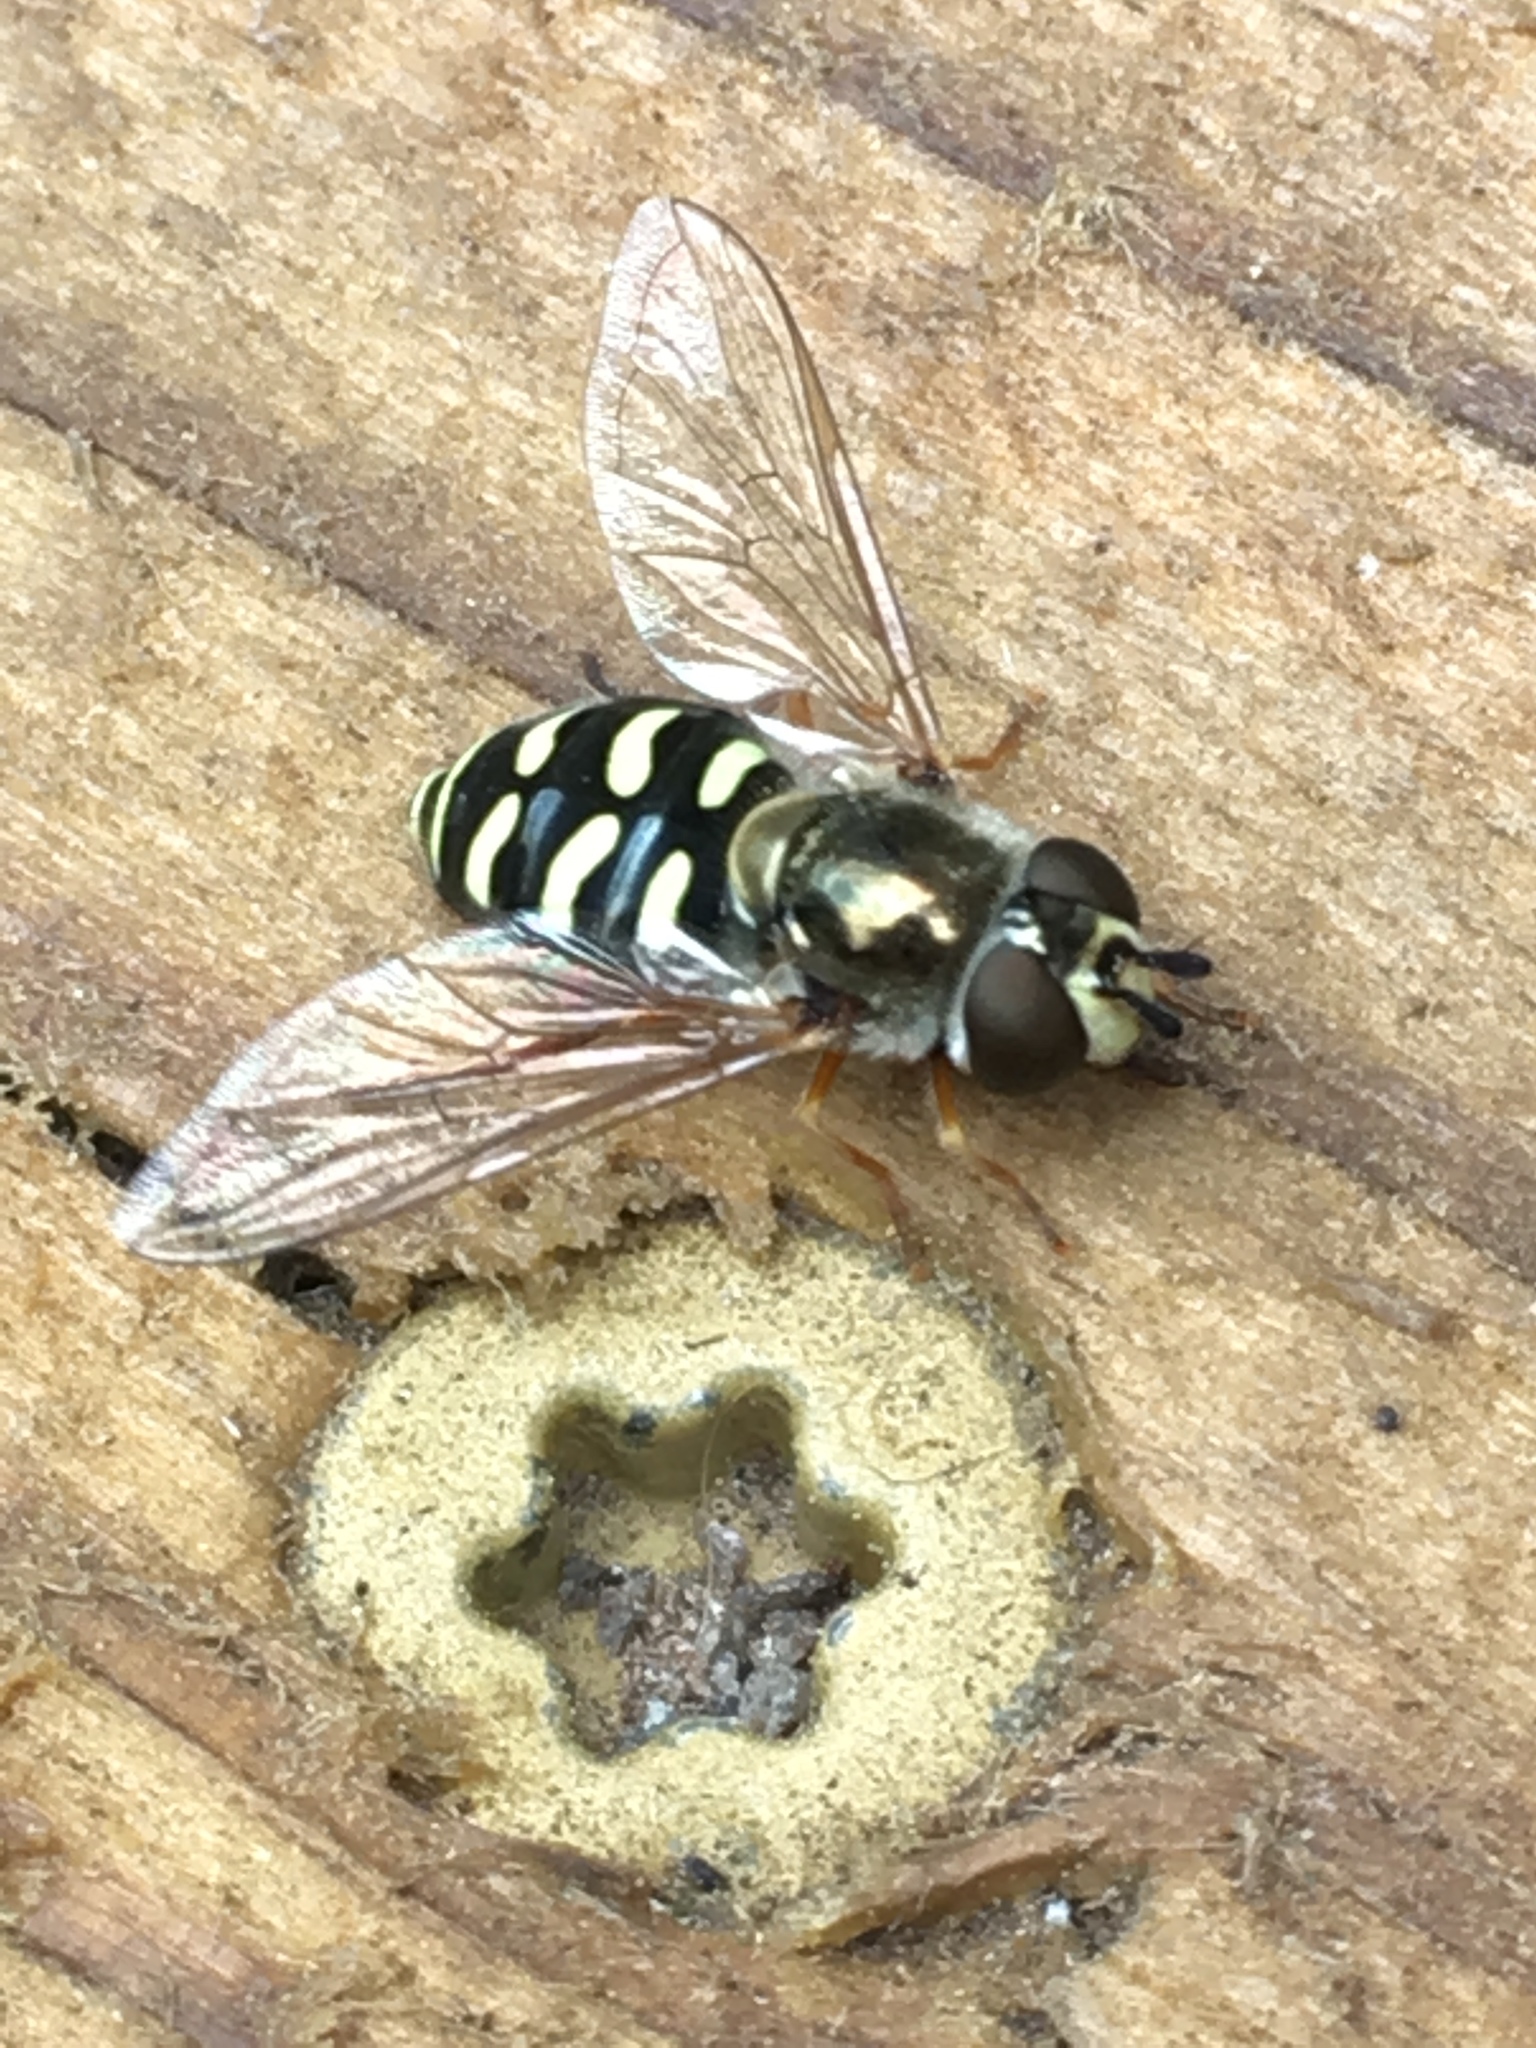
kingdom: Animalia
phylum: Arthropoda
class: Insecta
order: Diptera
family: Syrphidae
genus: Eupeodes
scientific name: Eupeodes volucris
